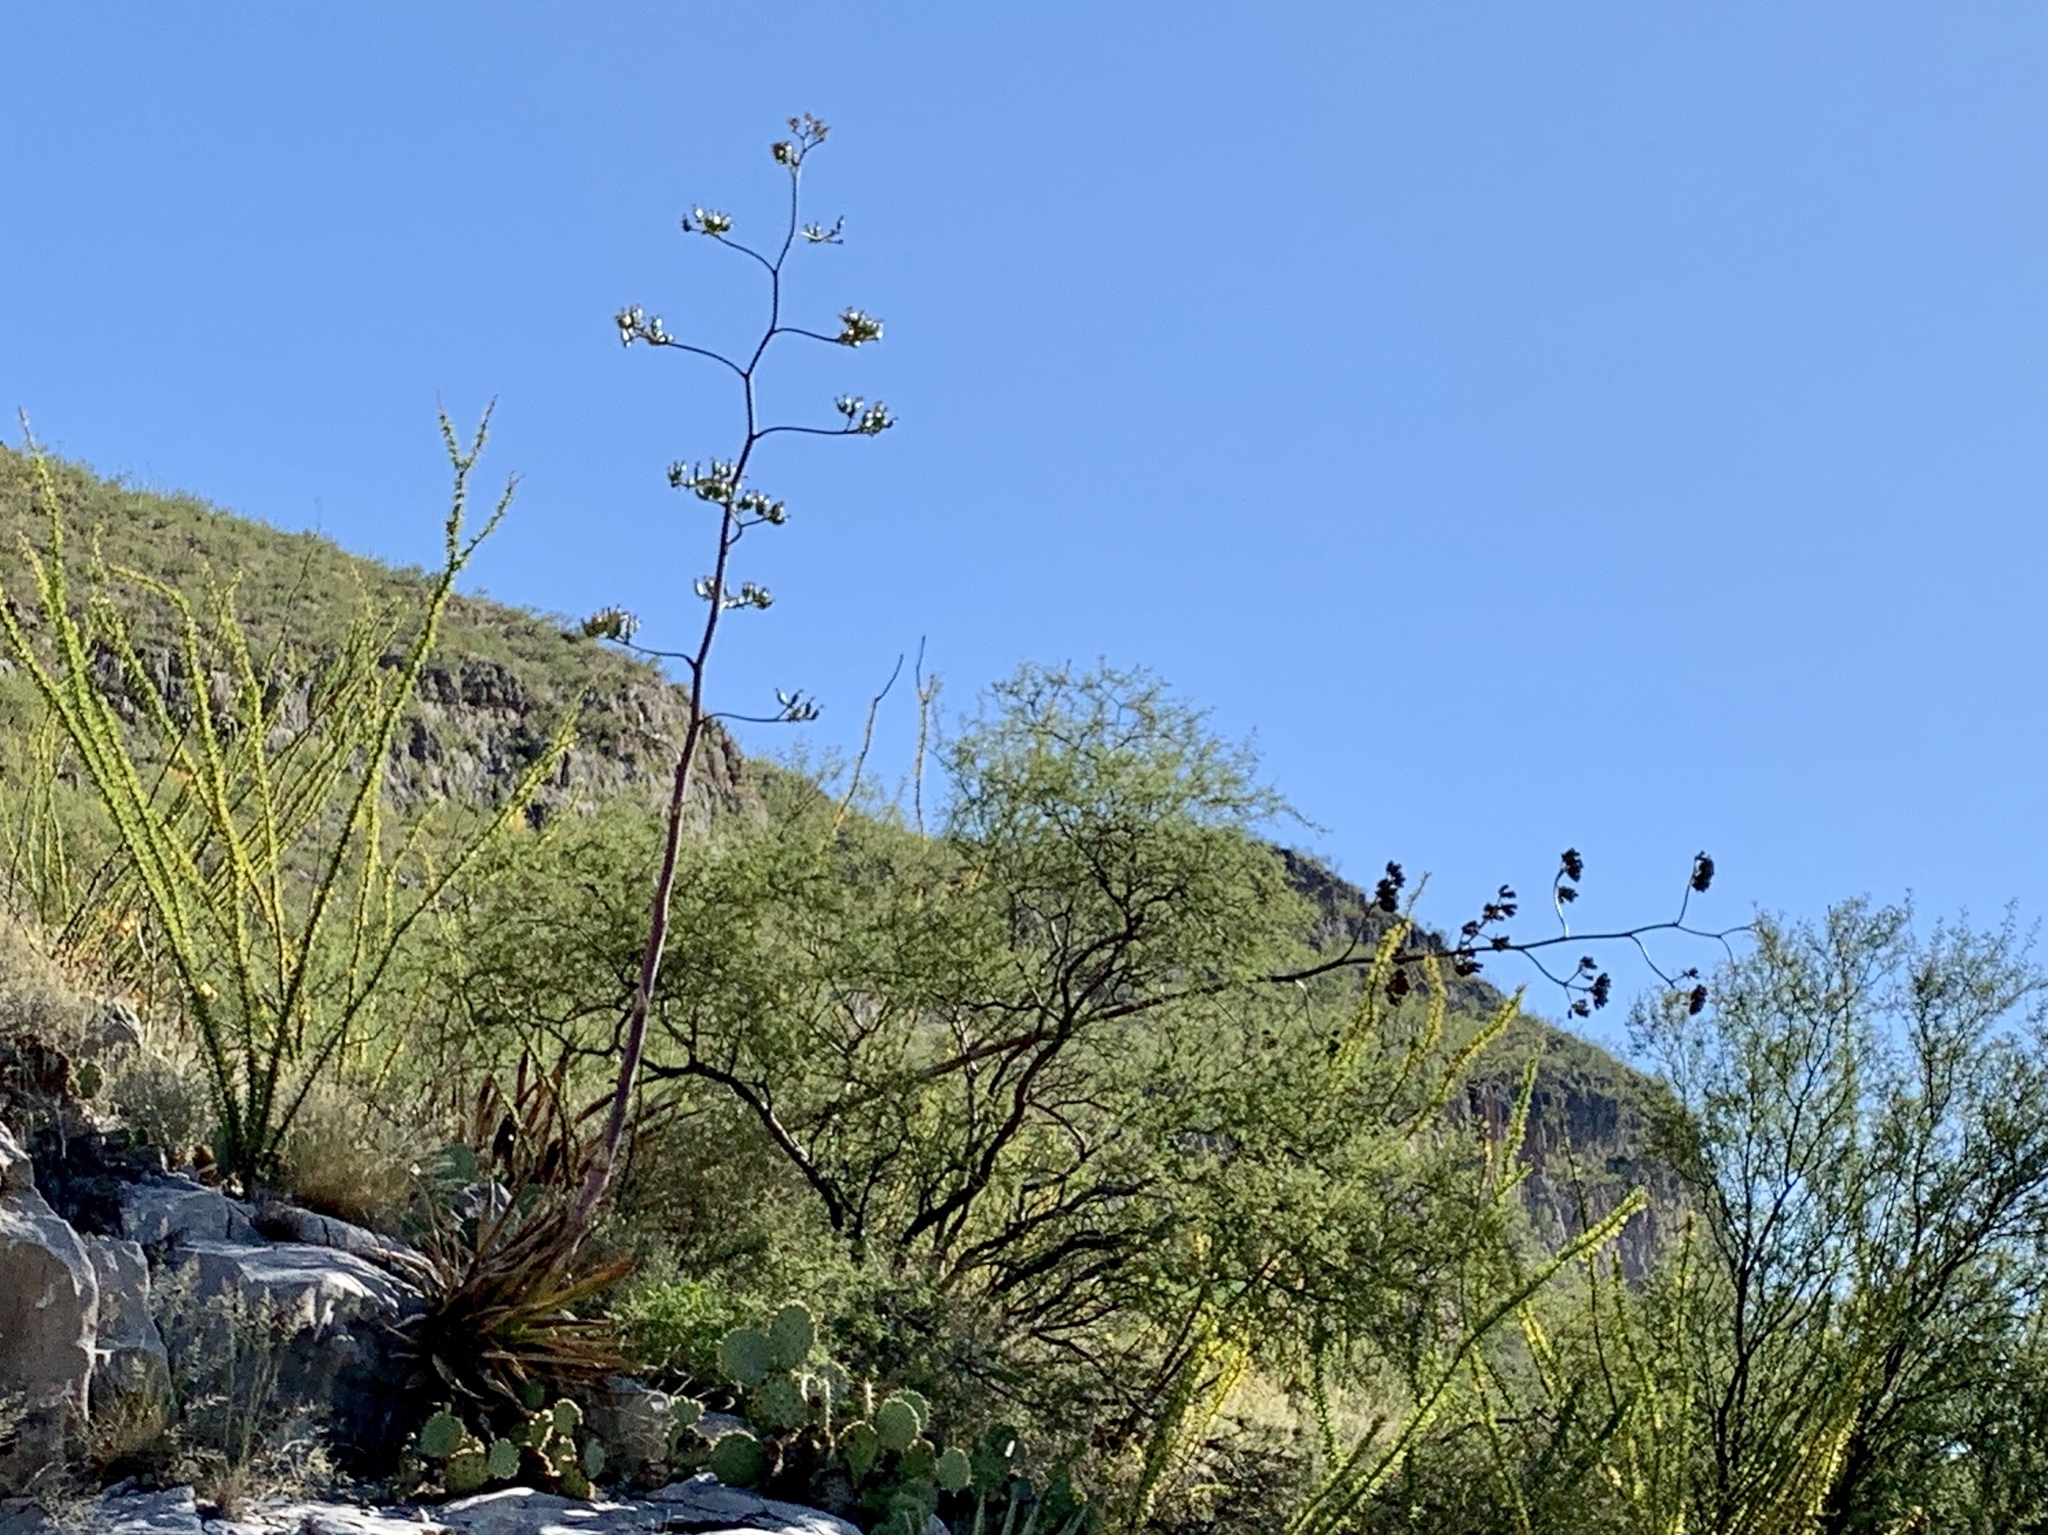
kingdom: Plantae
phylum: Tracheophyta
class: Liliopsida
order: Asparagales
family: Asparagaceae
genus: Agave
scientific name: Agave palmeri
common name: Palmer agave
